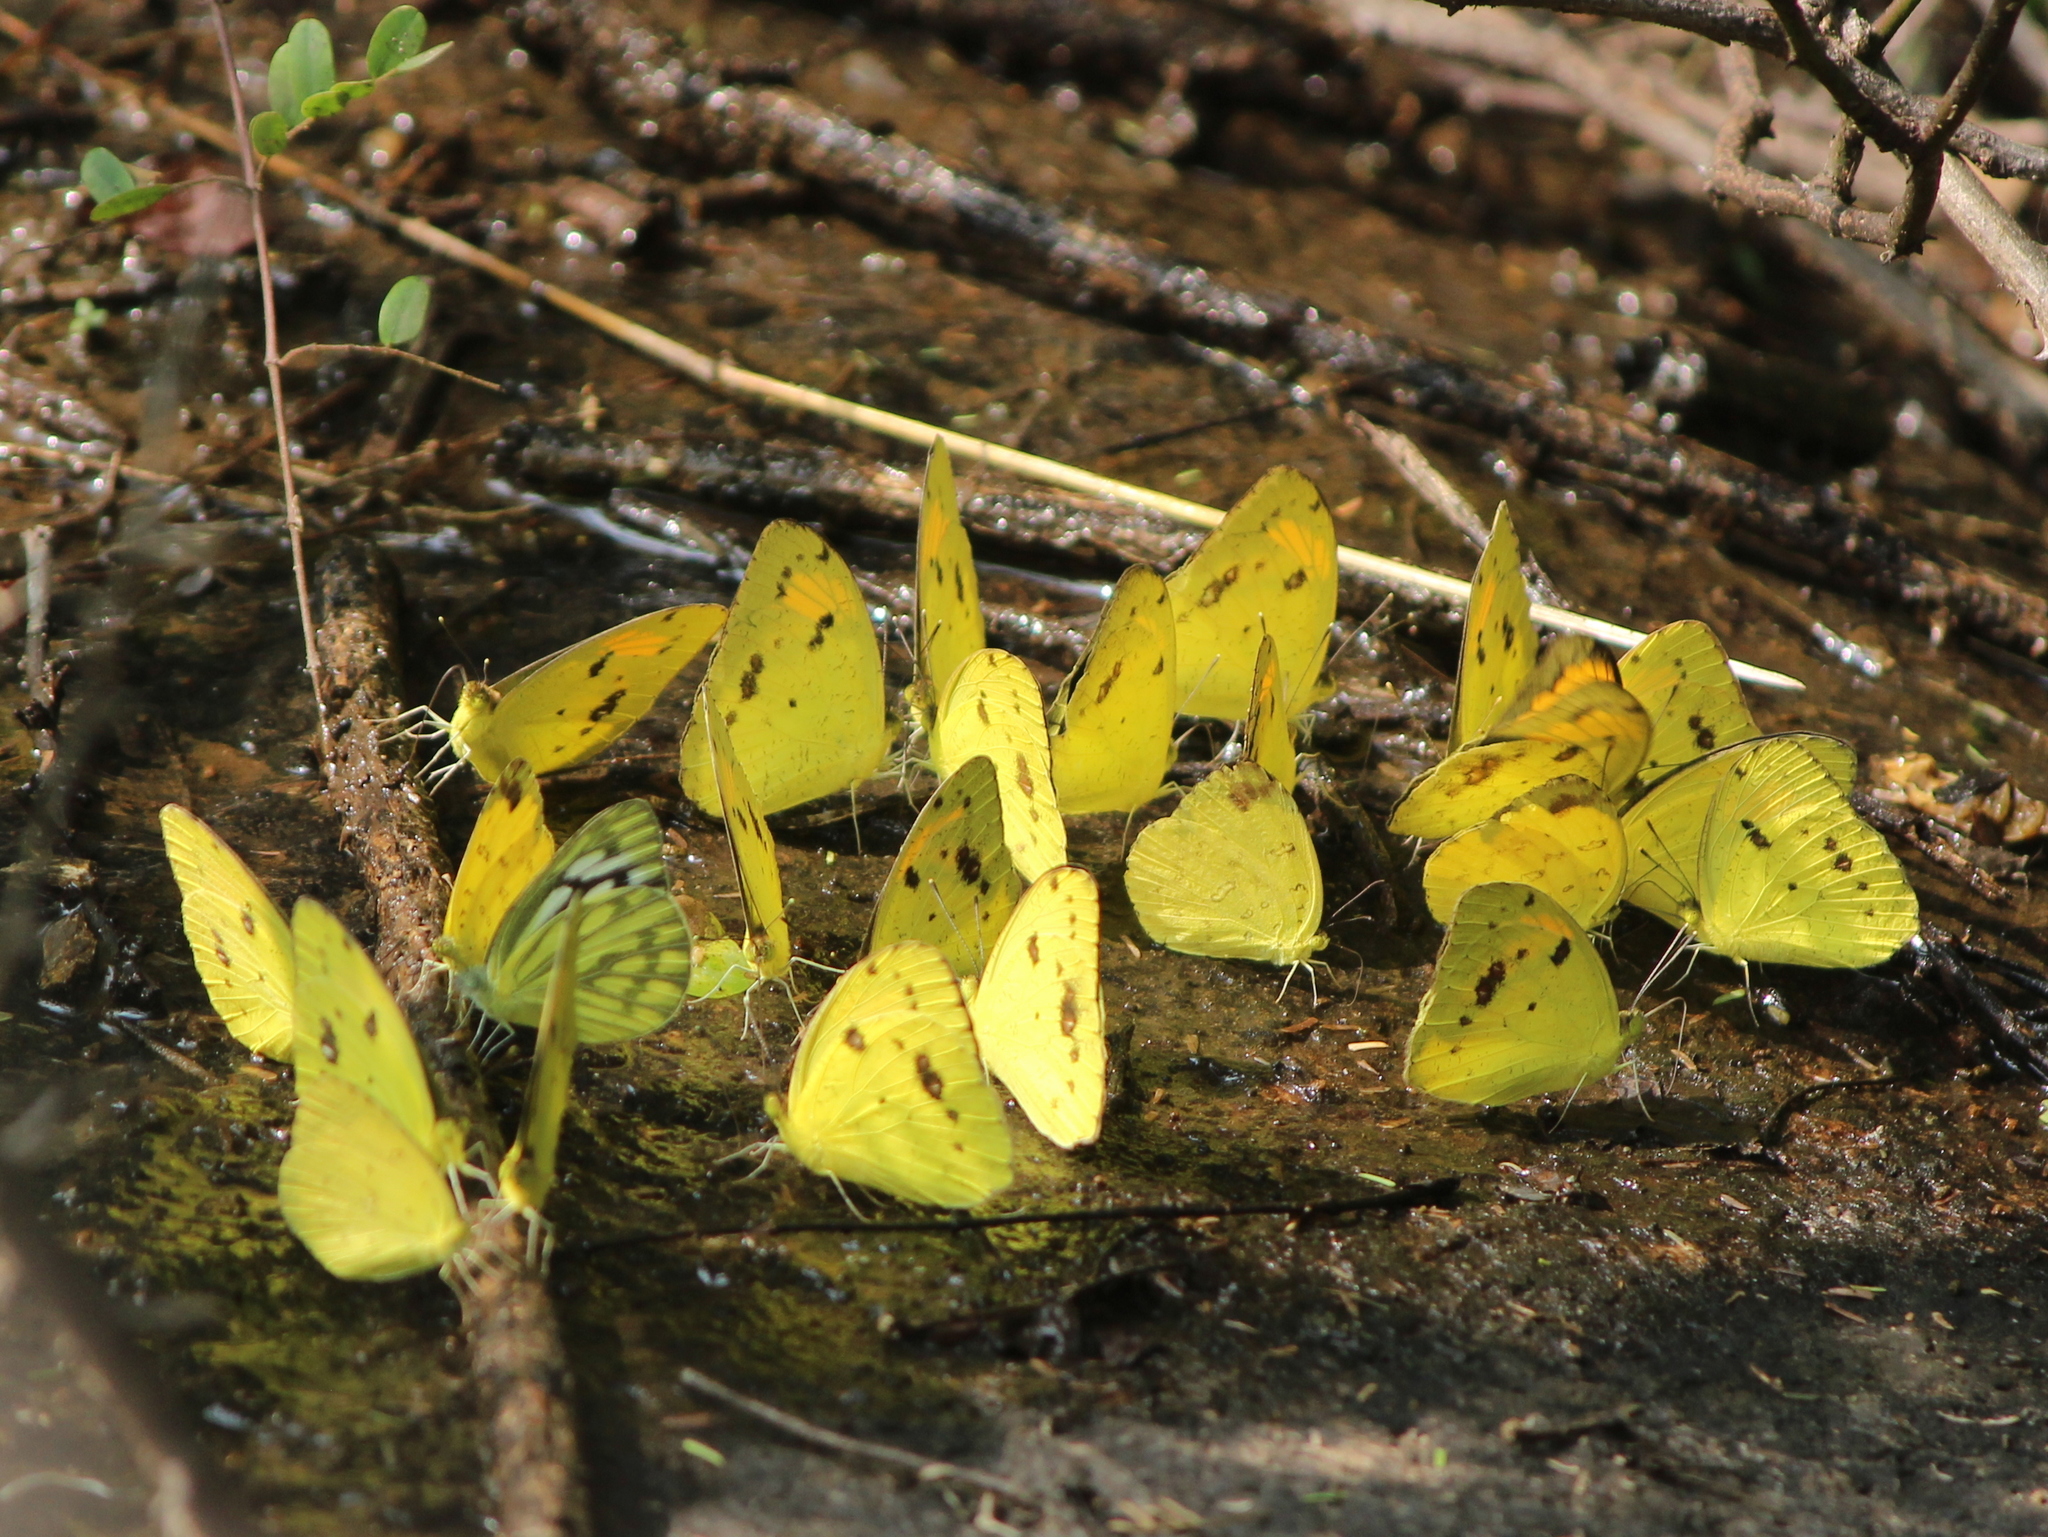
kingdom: Animalia
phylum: Arthropoda
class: Insecta
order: Lepidoptera
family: Pieridae
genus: Ixias
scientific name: Ixias pyrene
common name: Yellow orange tip
